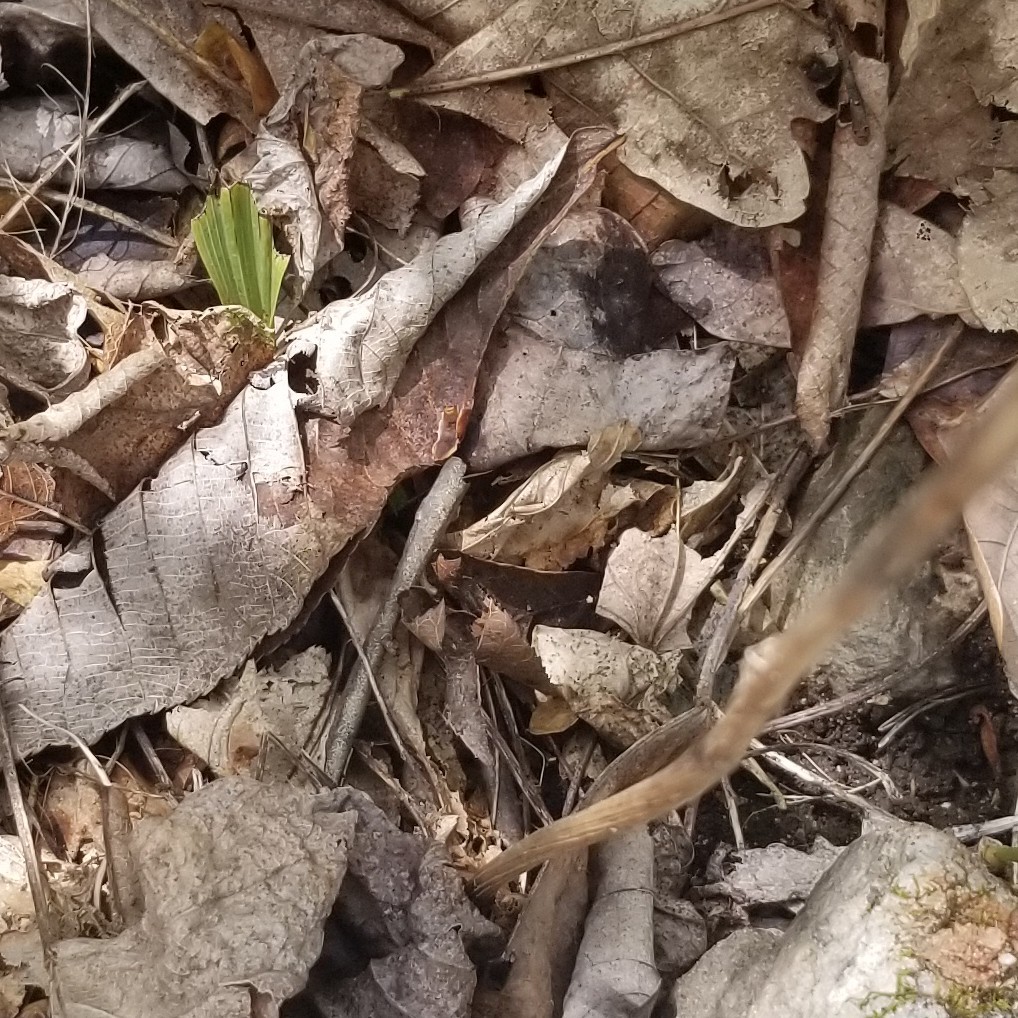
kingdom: Plantae
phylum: Tracheophyta
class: Liliopsida
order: Asparagales
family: Orchidaceae
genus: Aplectrum
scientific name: Aplectrum hyemale
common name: Adam-and-eve
